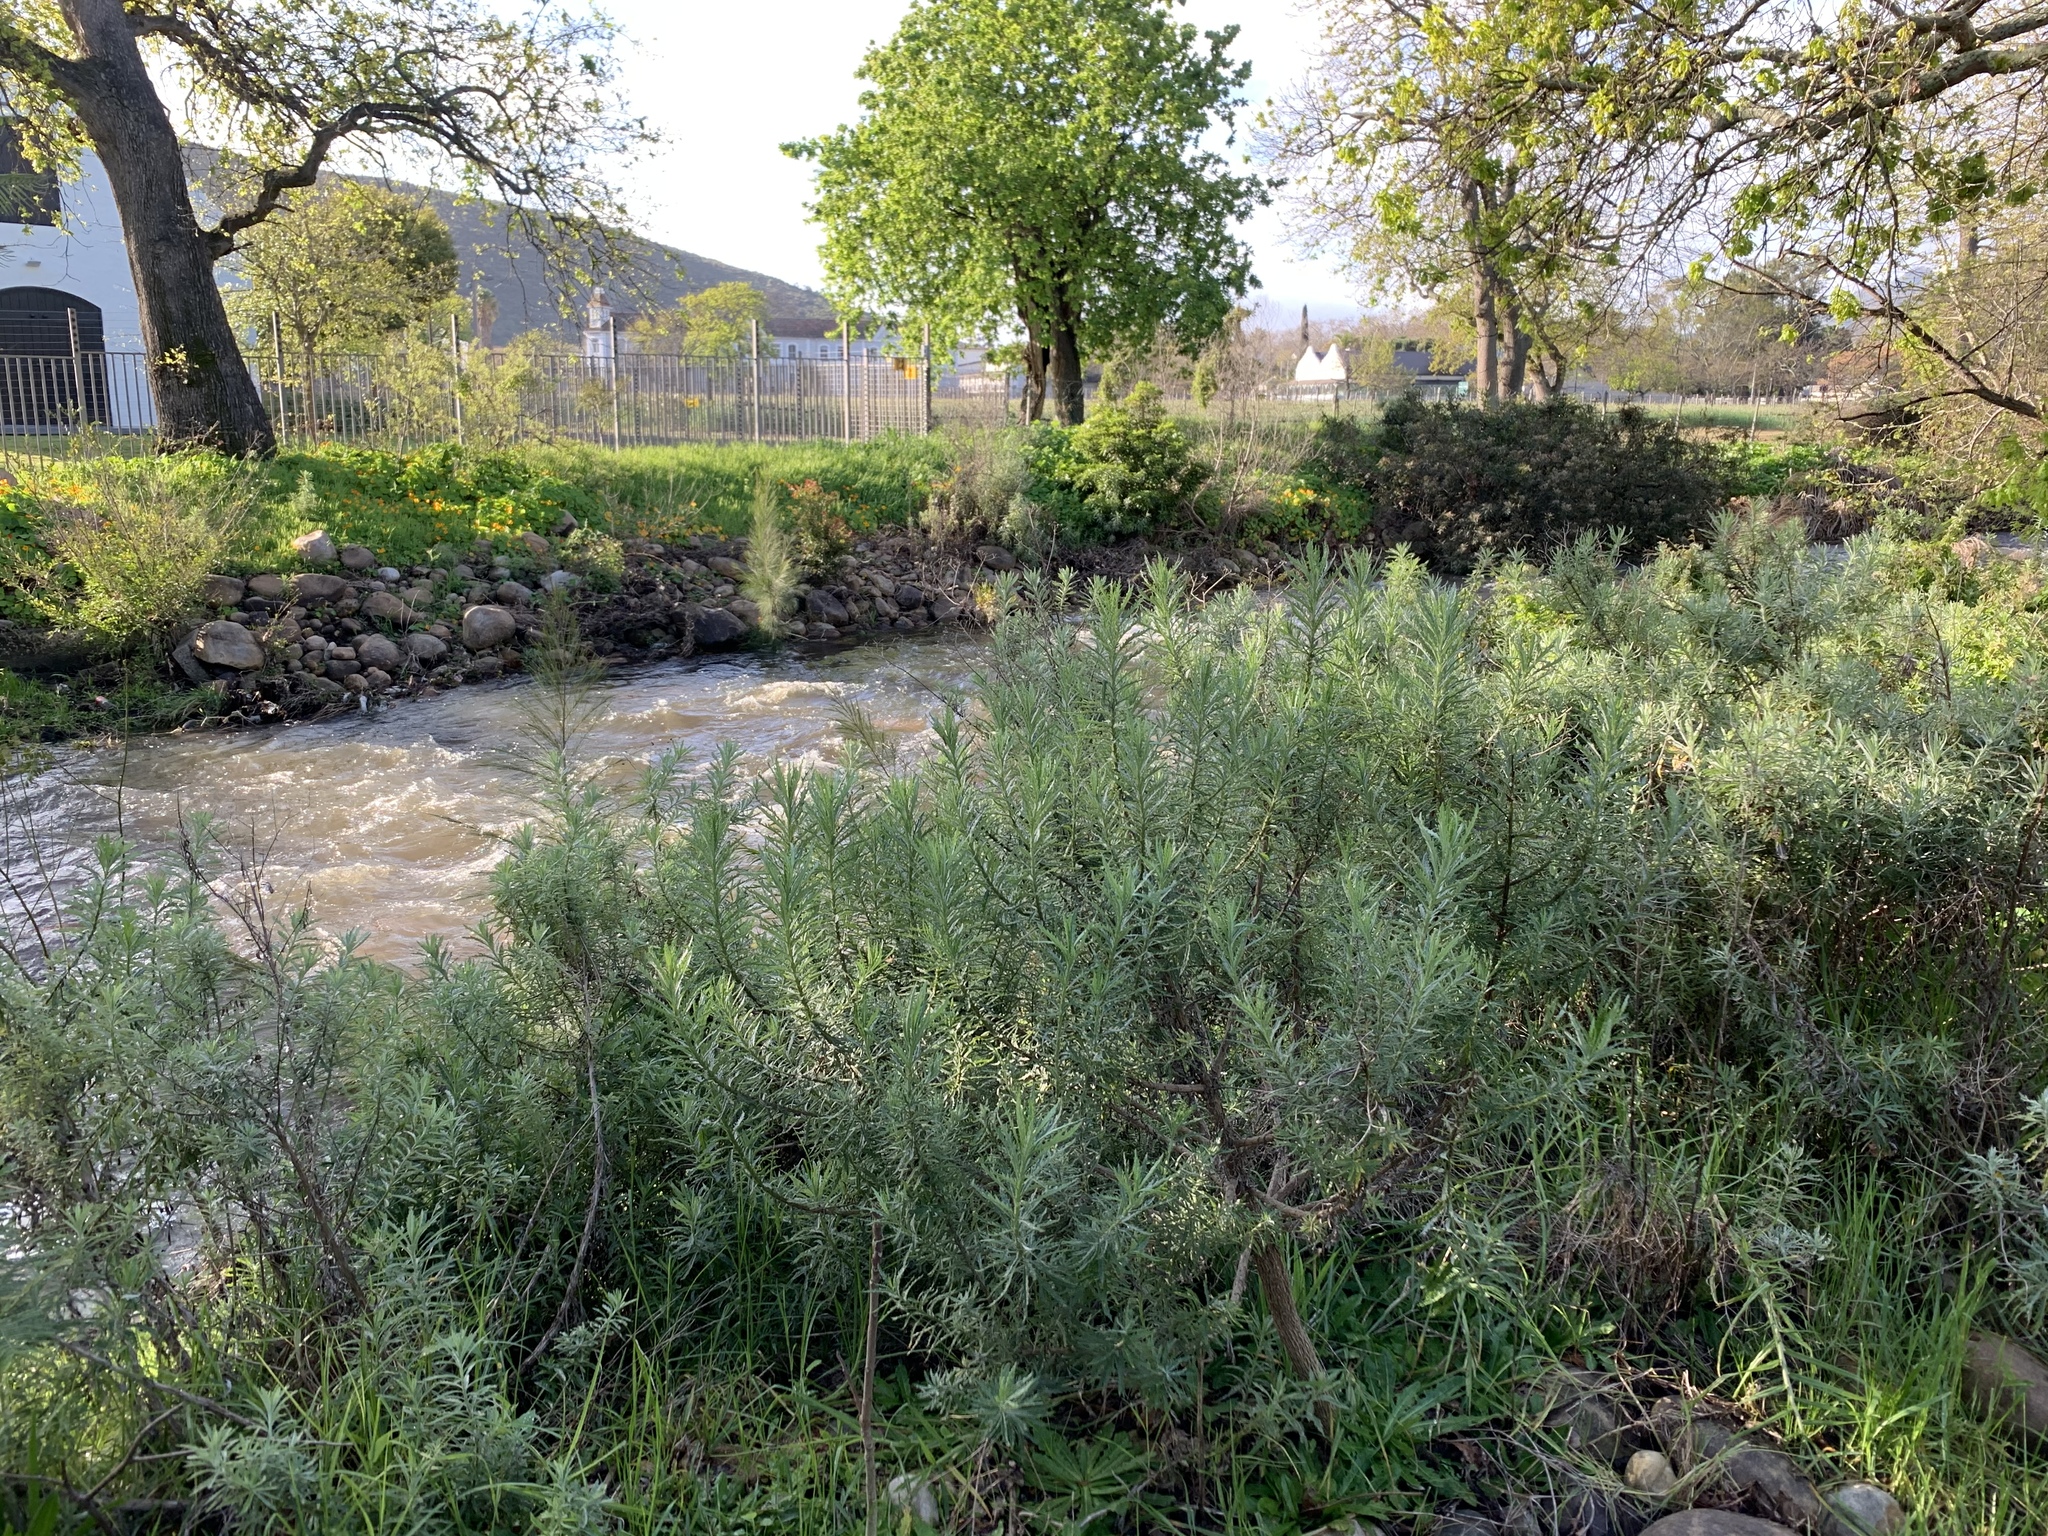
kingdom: Plantae
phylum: Tracheophyta
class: Magnoliopsida
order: Asterales
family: Asteraceae
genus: Senecio
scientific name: Senecio pterophorus
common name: Shoddy ragwort
